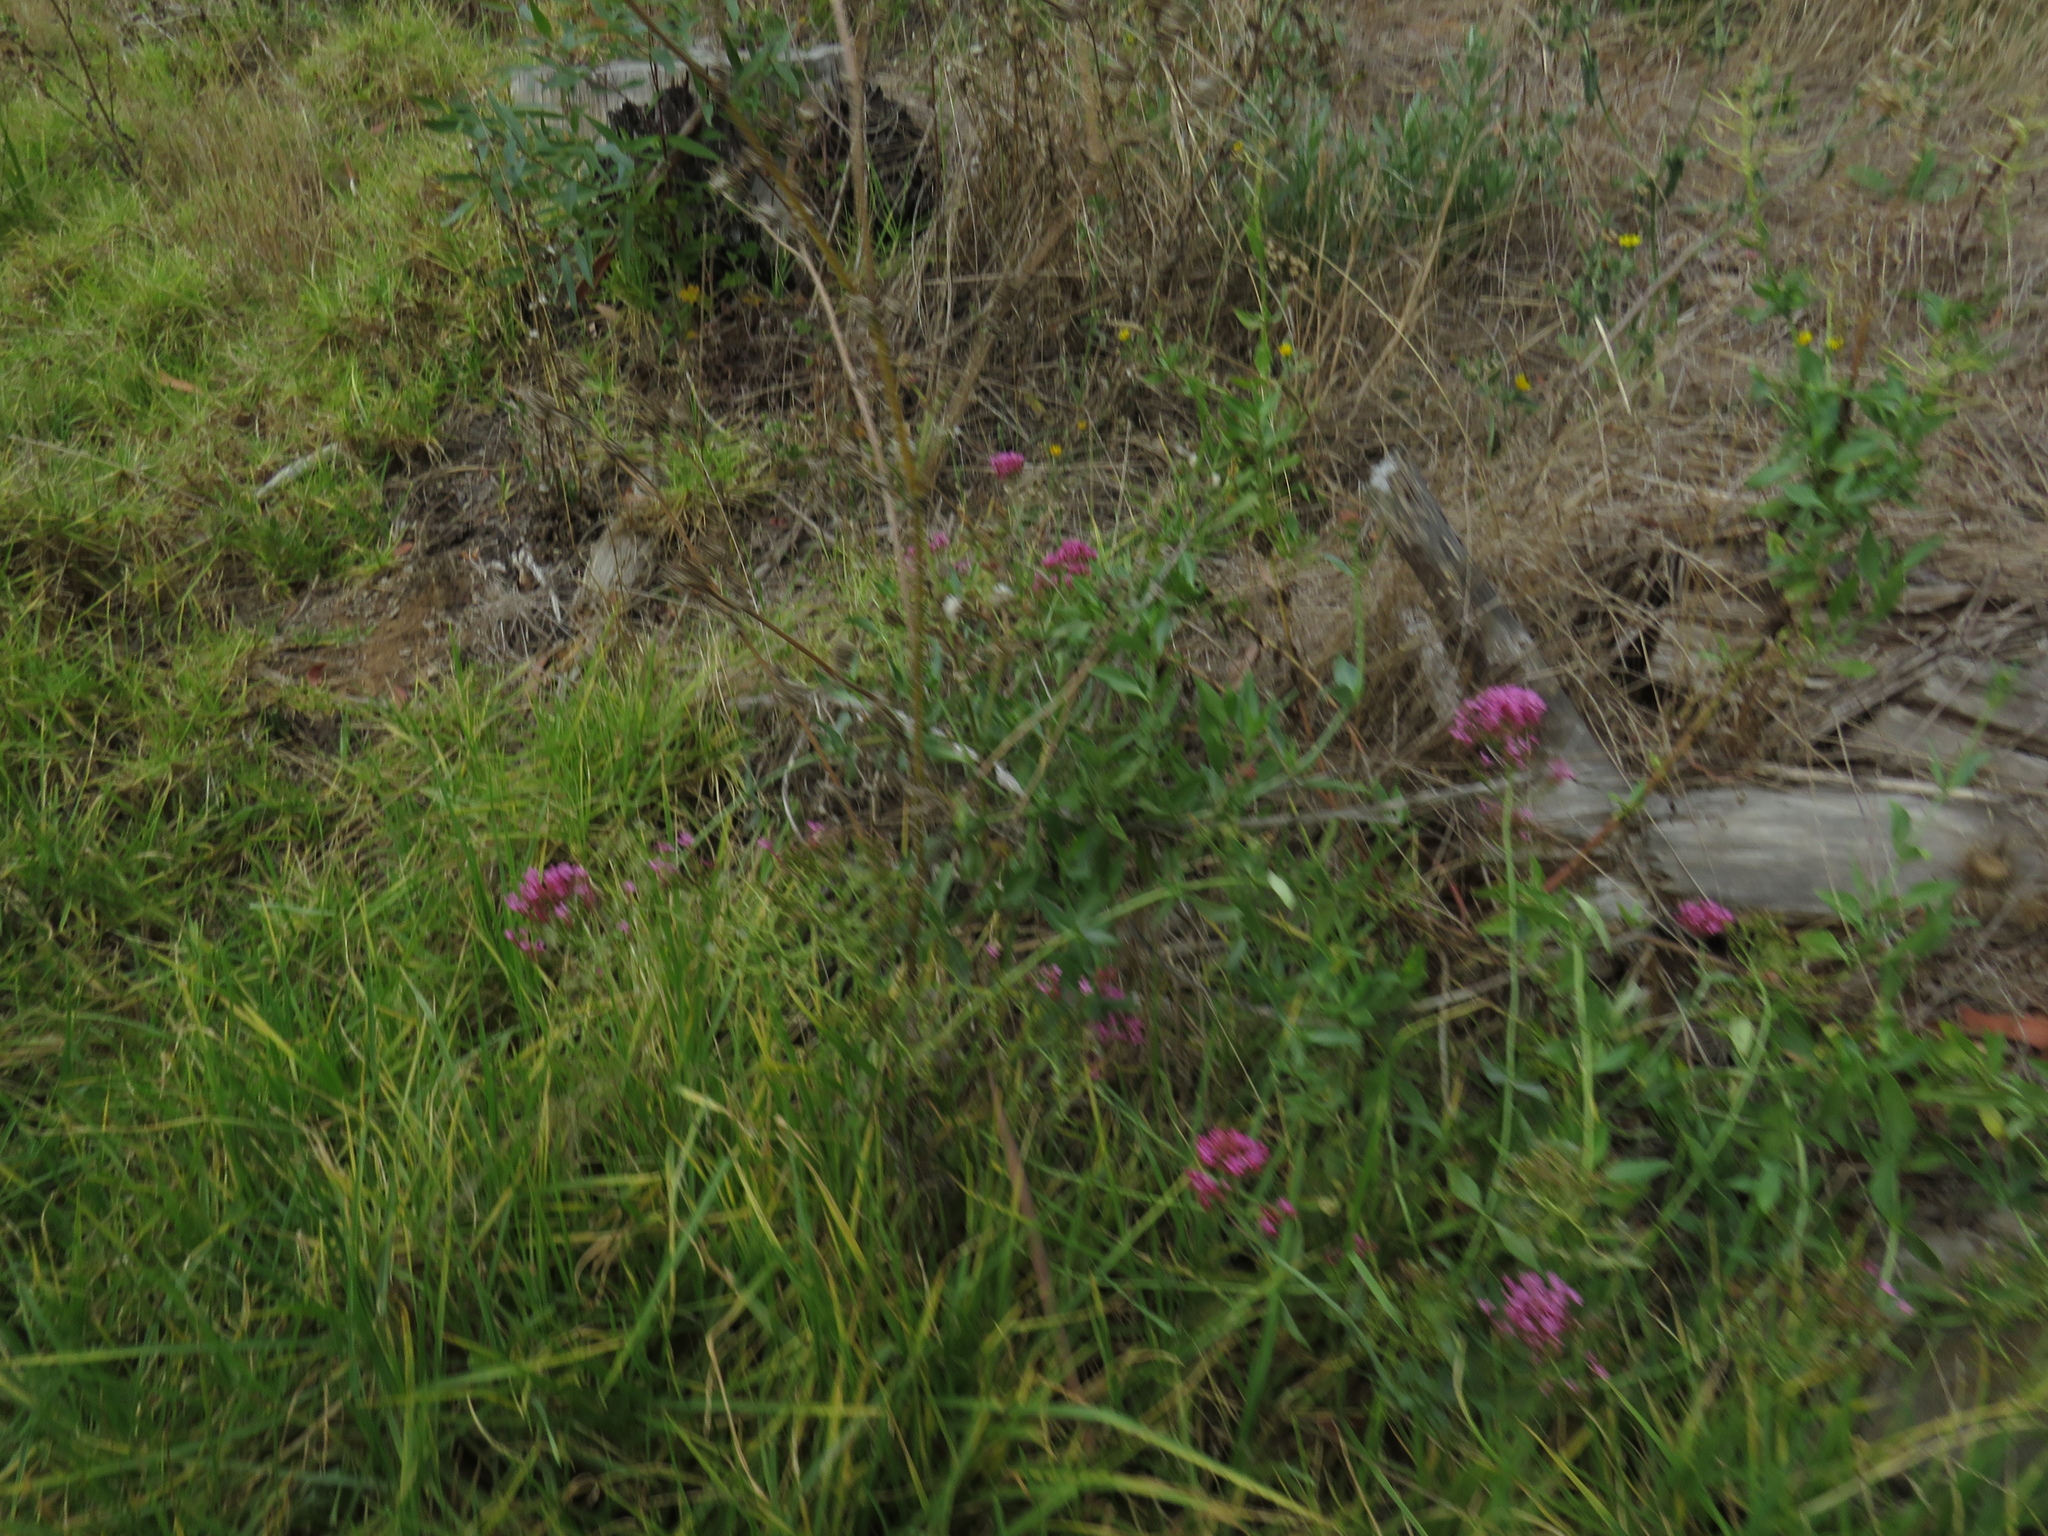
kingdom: Plantae
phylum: Tracheophyta
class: Magnoliopsida
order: Dipsacales
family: Caprifoliaceae
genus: Centranthus
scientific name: Centranthus ruber
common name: Red valerian
